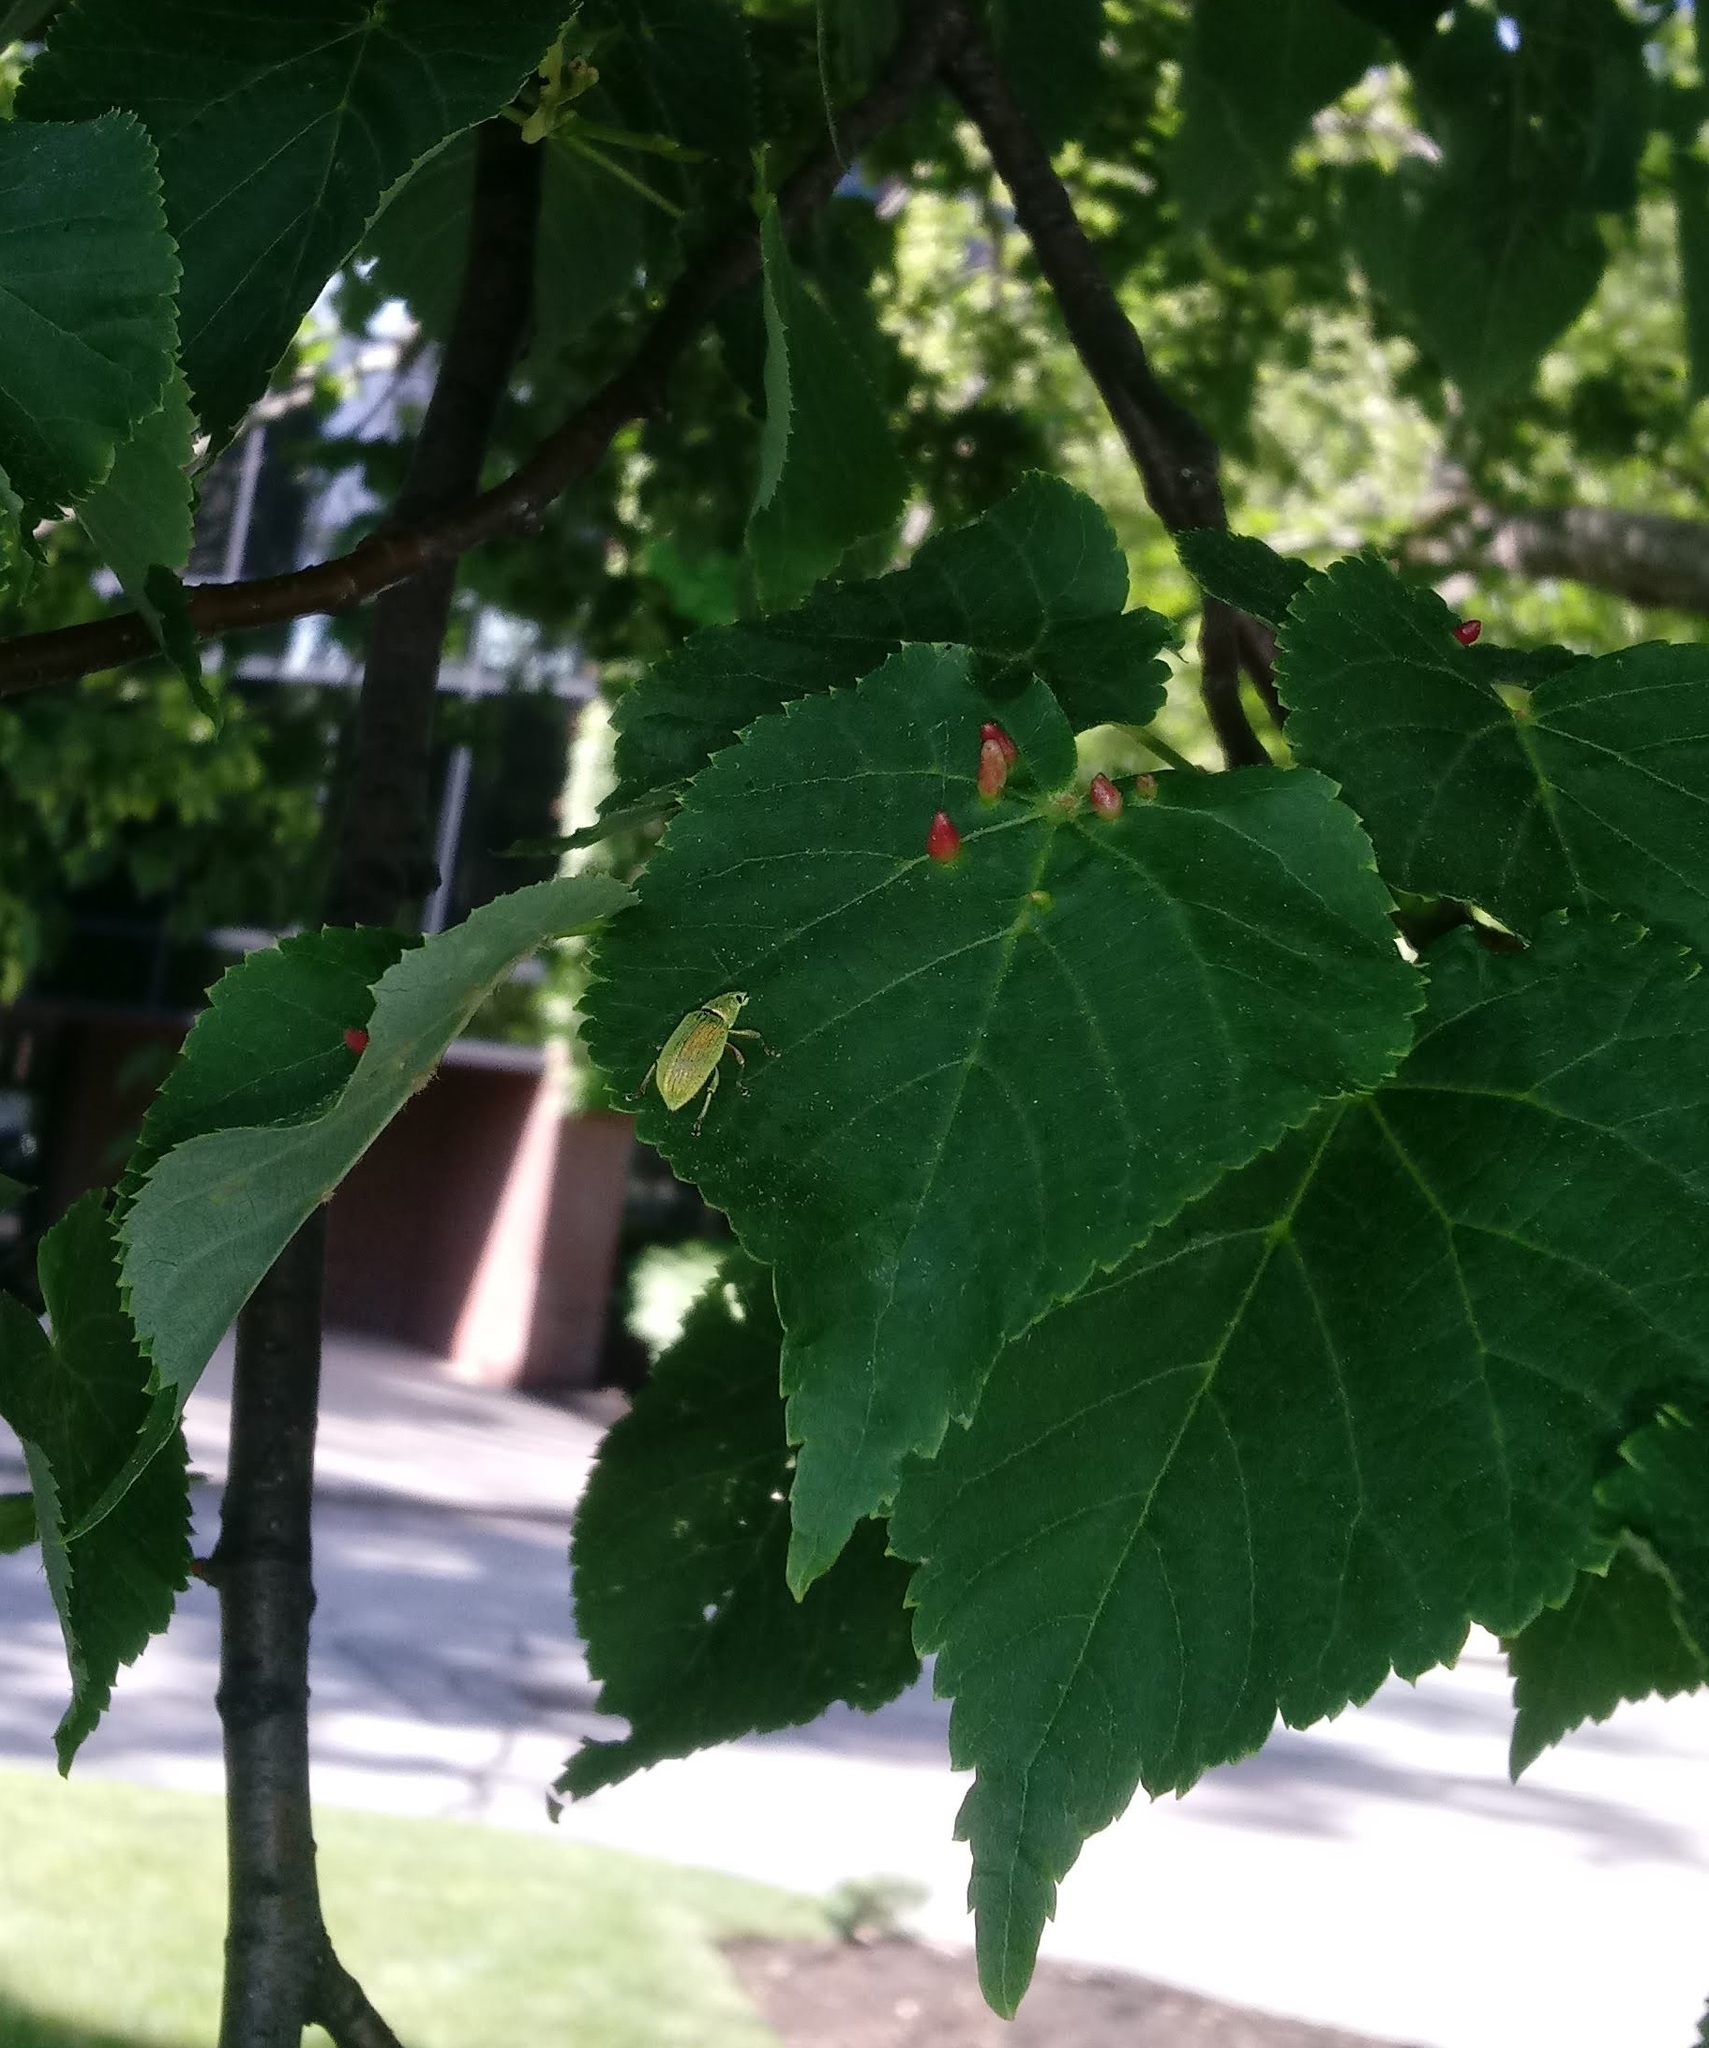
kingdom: Animalia
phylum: Arthropoda
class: Arachnida
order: Trombidiformes
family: Eriophyidae
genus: Eriophyes
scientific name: Eriophyes tiliae
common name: Red nail gall mite
